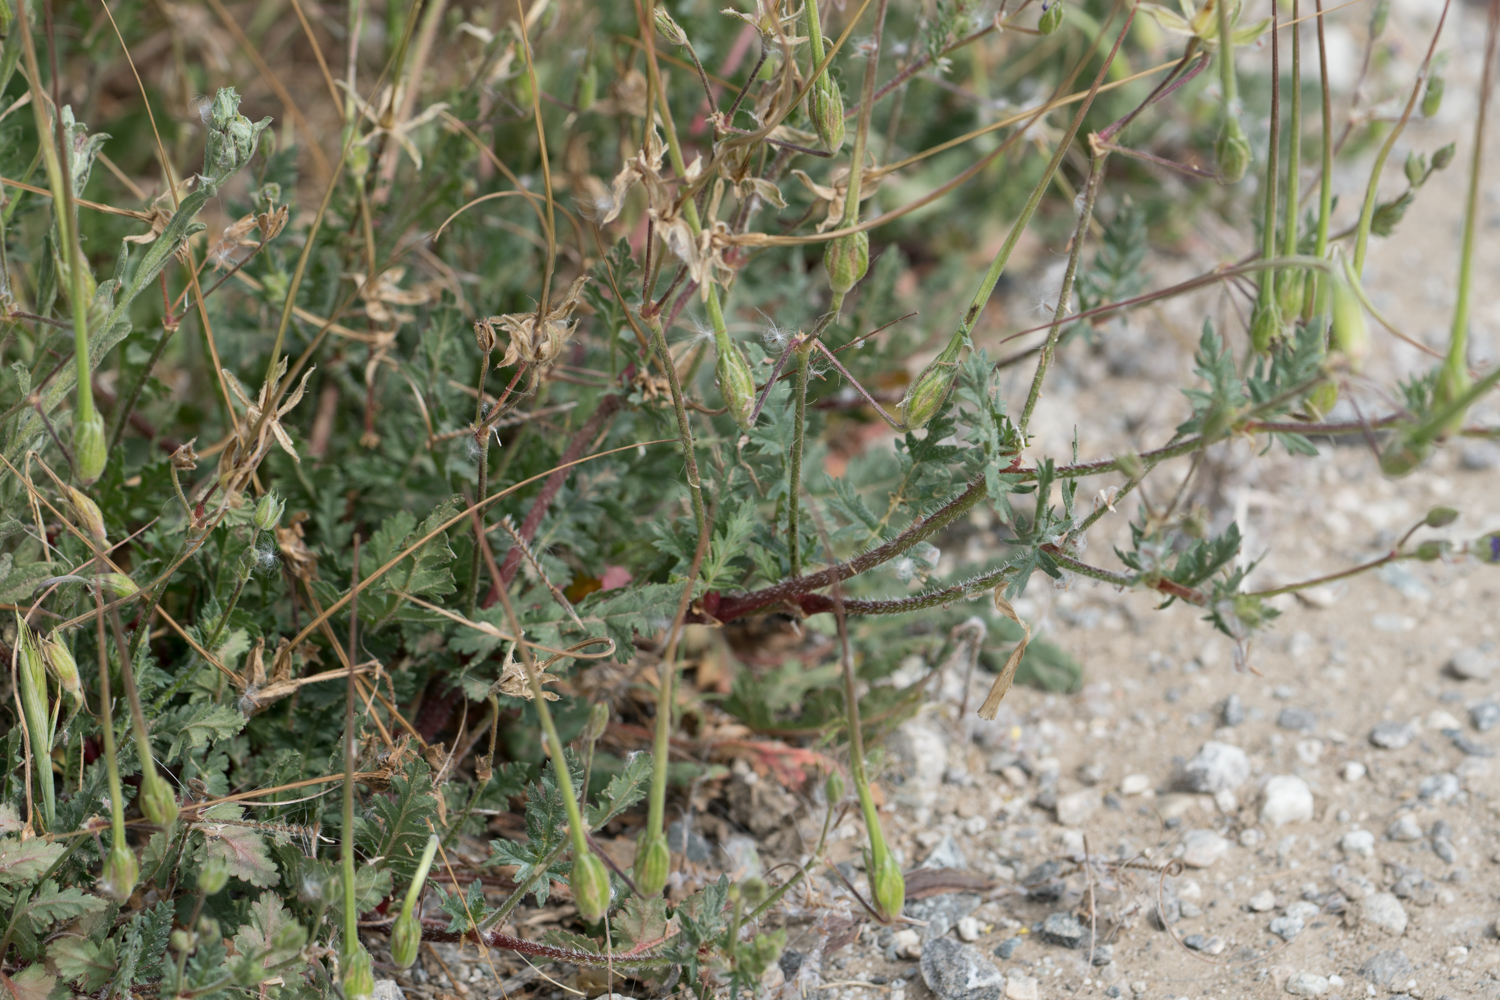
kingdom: Plantae
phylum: Tracheophyta
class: Magnoliopsida
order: Geraniales
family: Geraniaceae
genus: Erodium
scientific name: Erodium botrys
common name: Mediterranean stork's-bill
